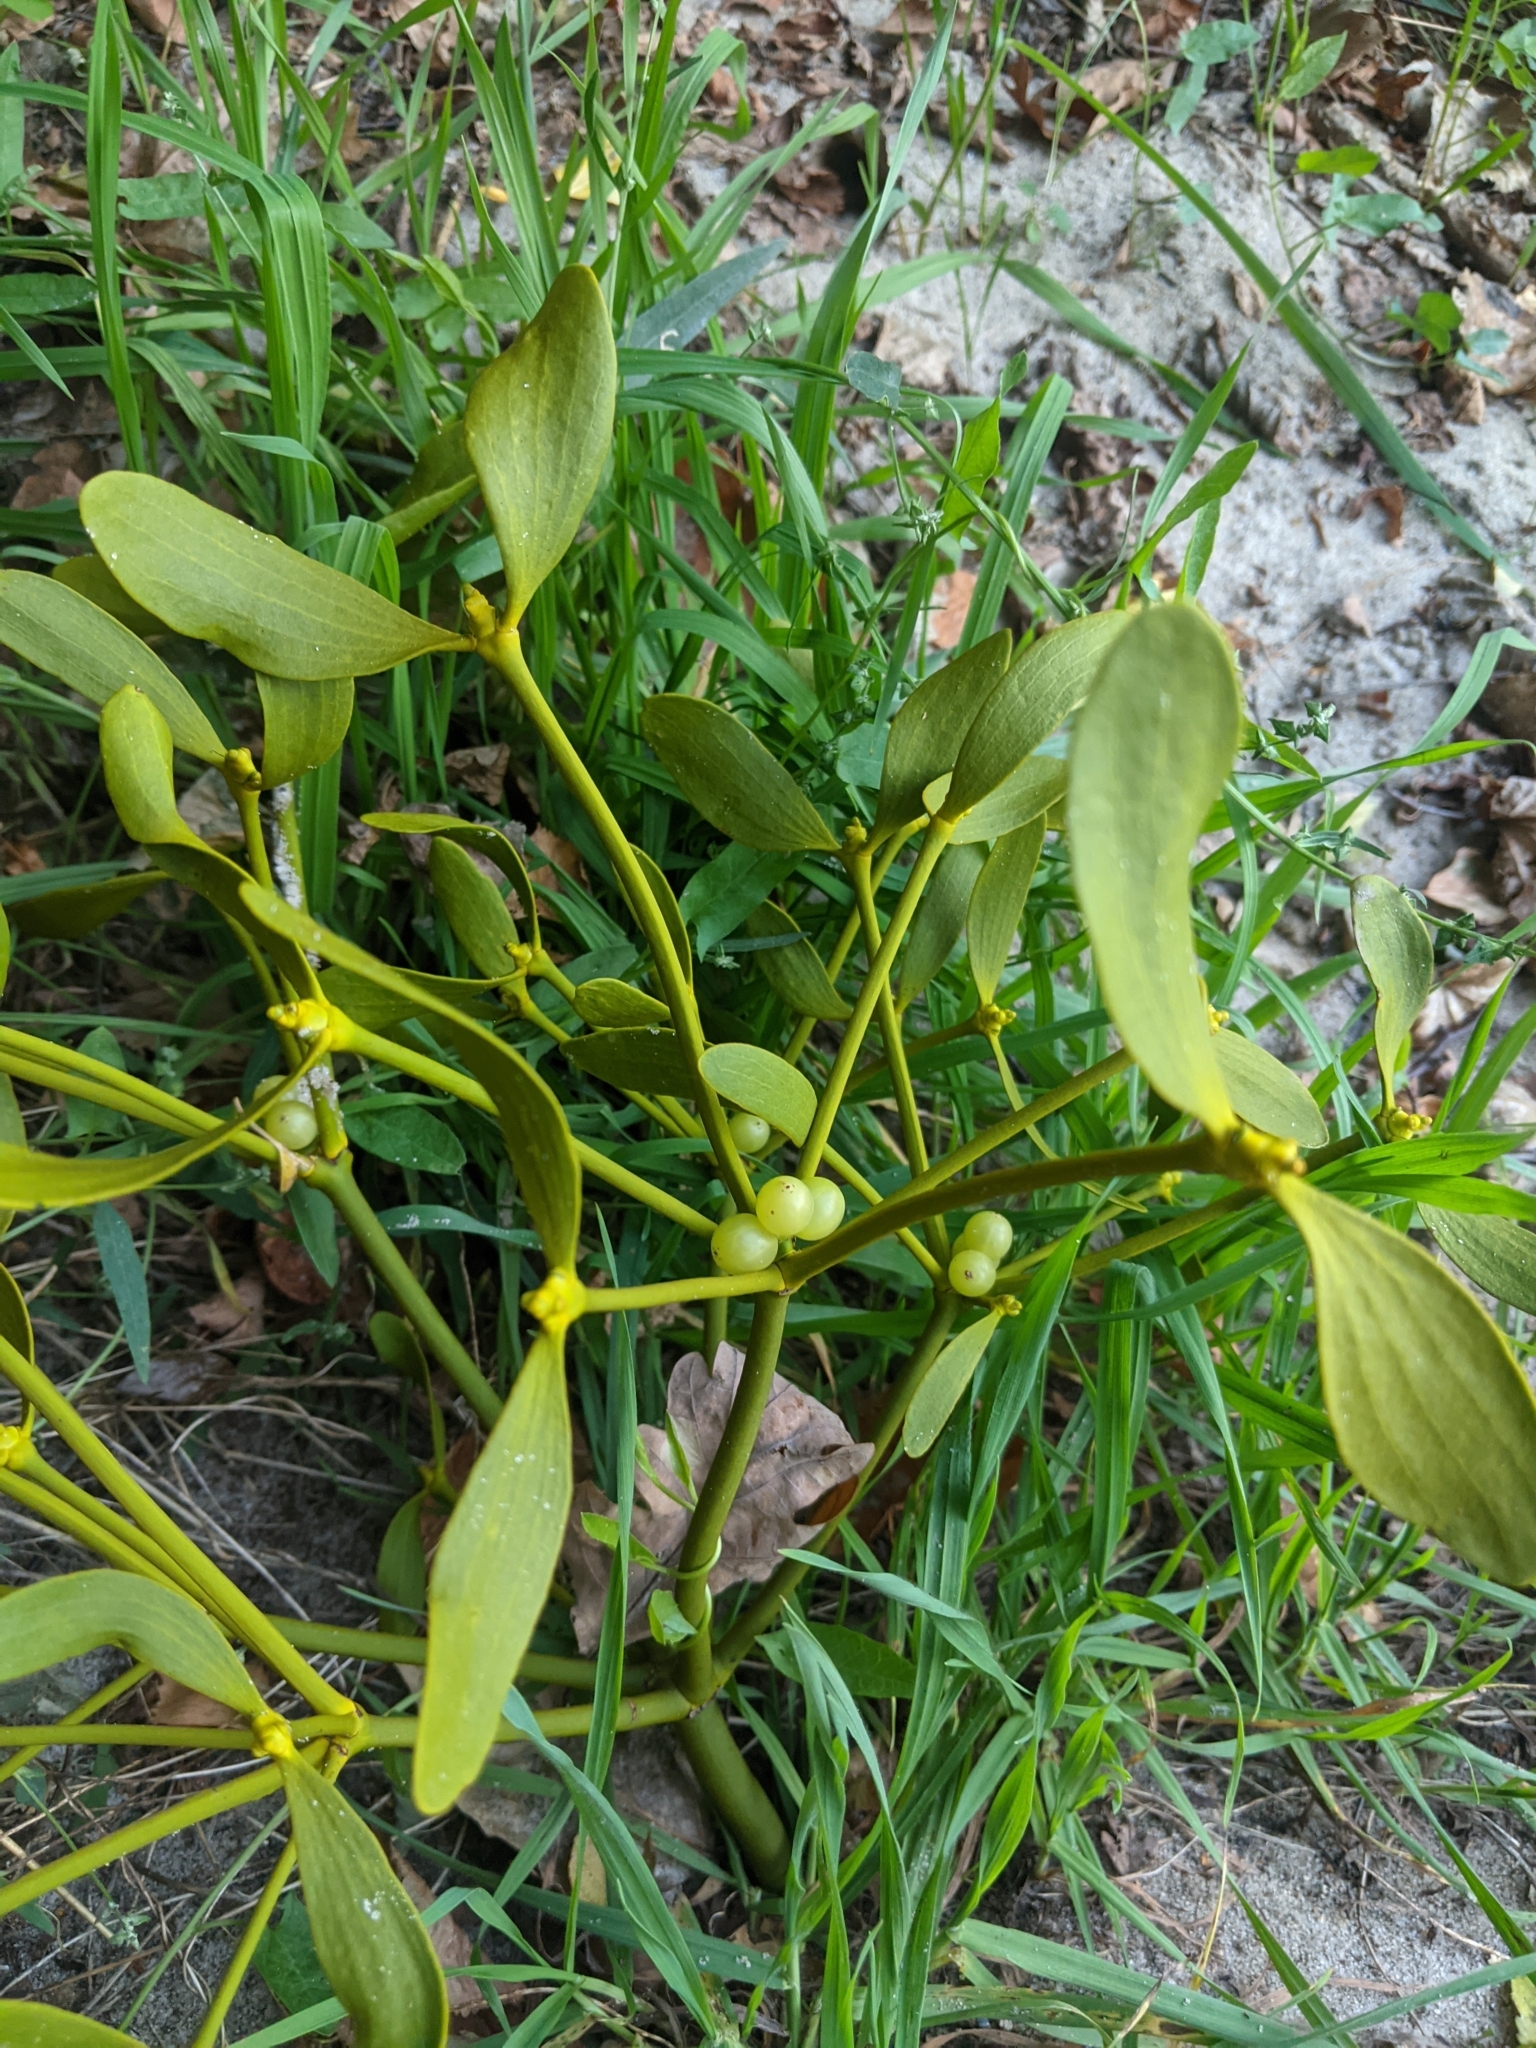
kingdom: Plantae
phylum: Tracheophyta
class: Magnoliopsida
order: Santalales
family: Viscaceae
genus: Viscum
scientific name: Viscum album
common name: Mistletoe
